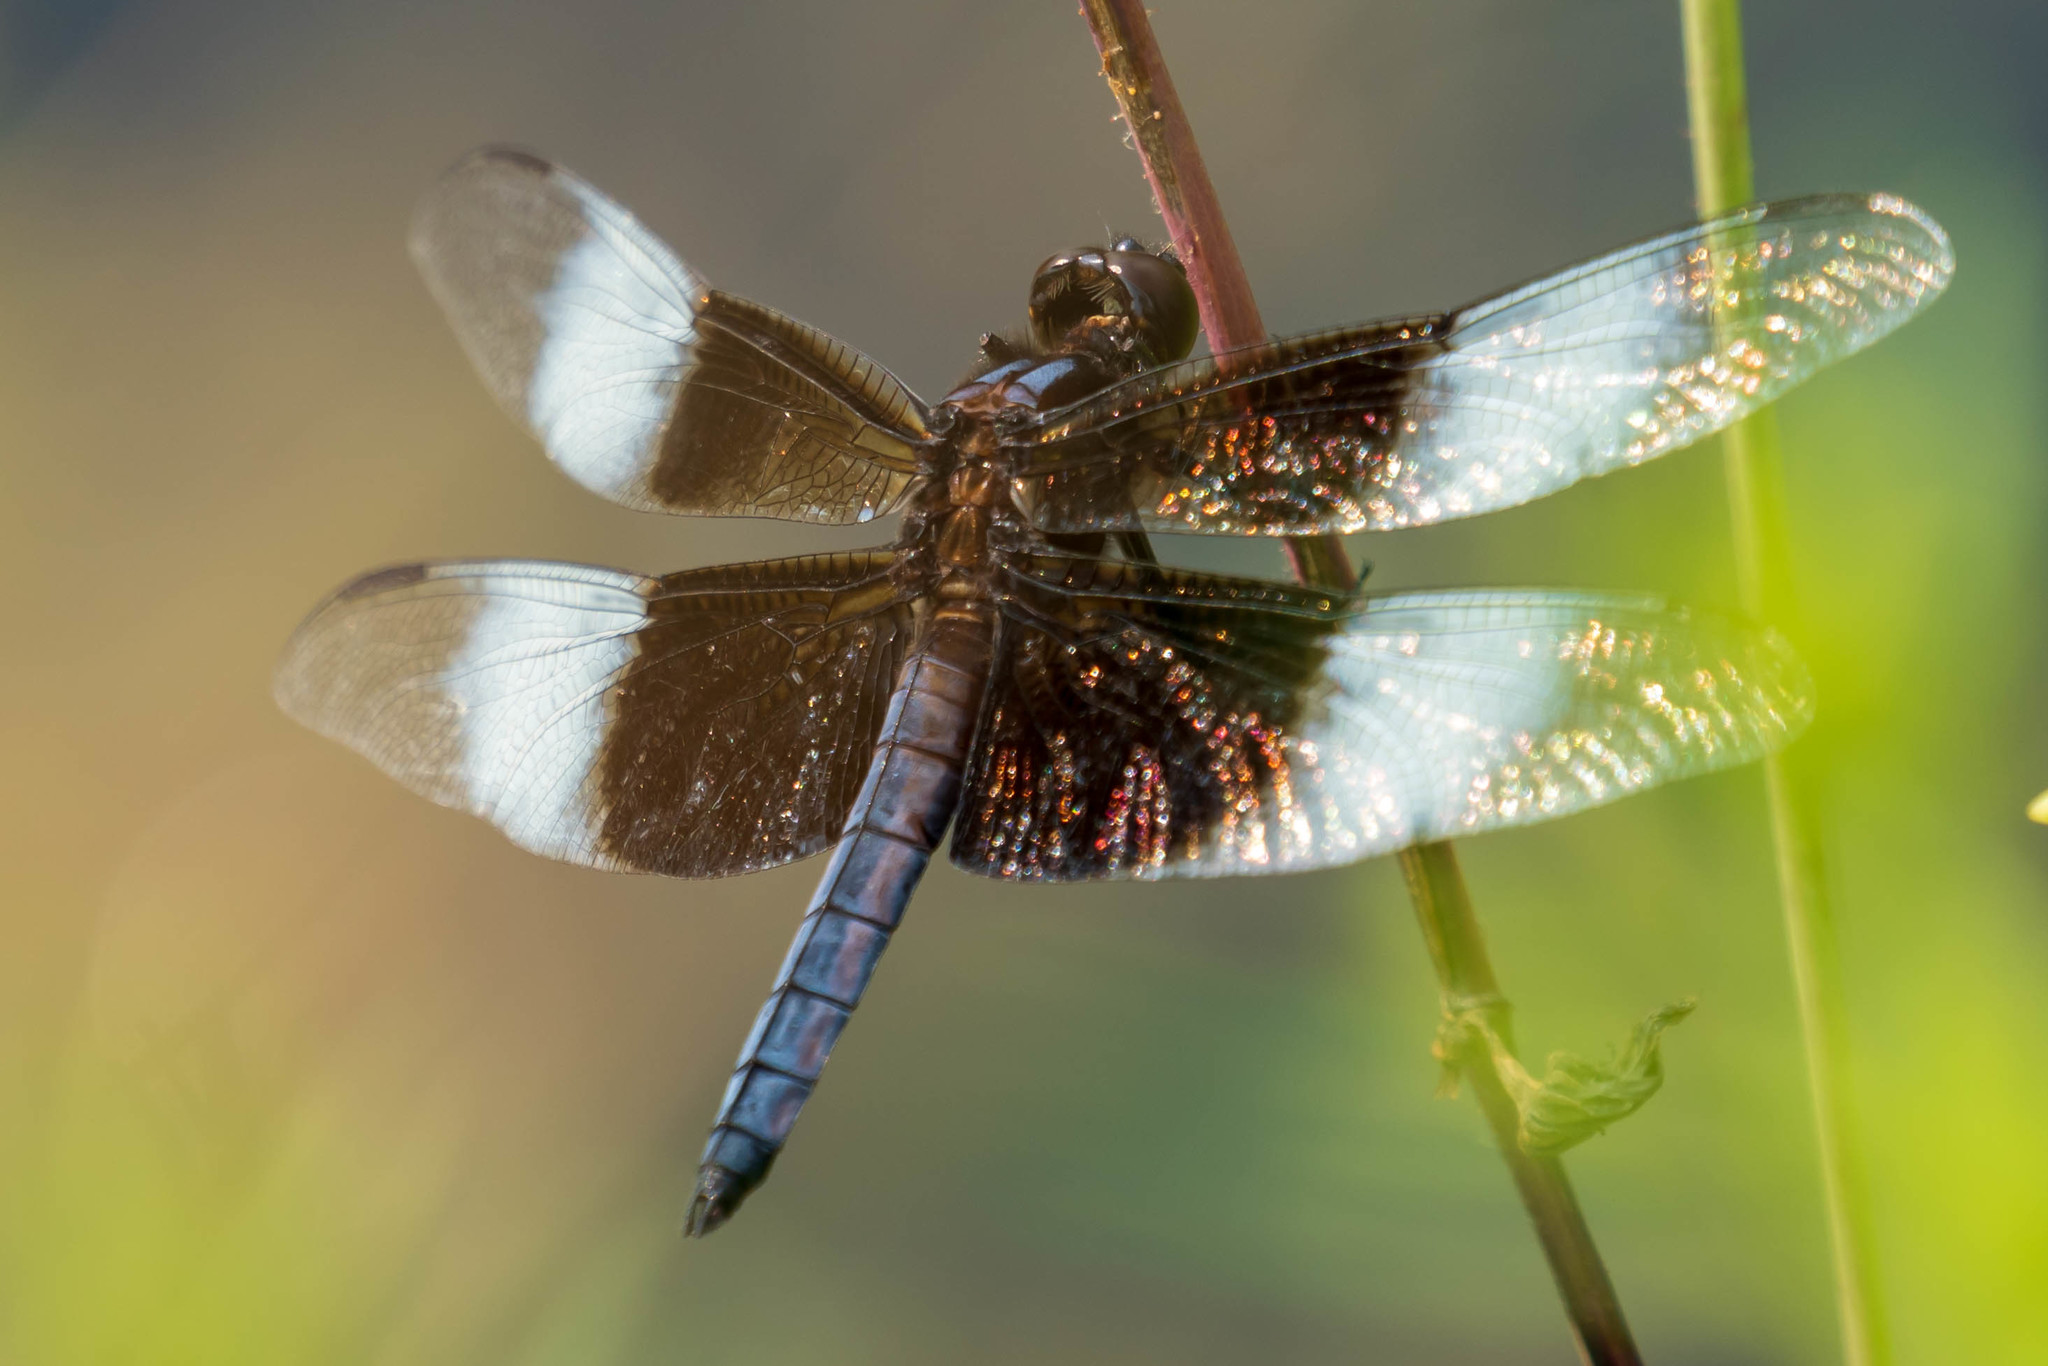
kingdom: Animalia
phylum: Arthropoda
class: Insecta
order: Odonata
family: Libellulidae
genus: Libellula
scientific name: Libellula luctuosa
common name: Widow skimmer
